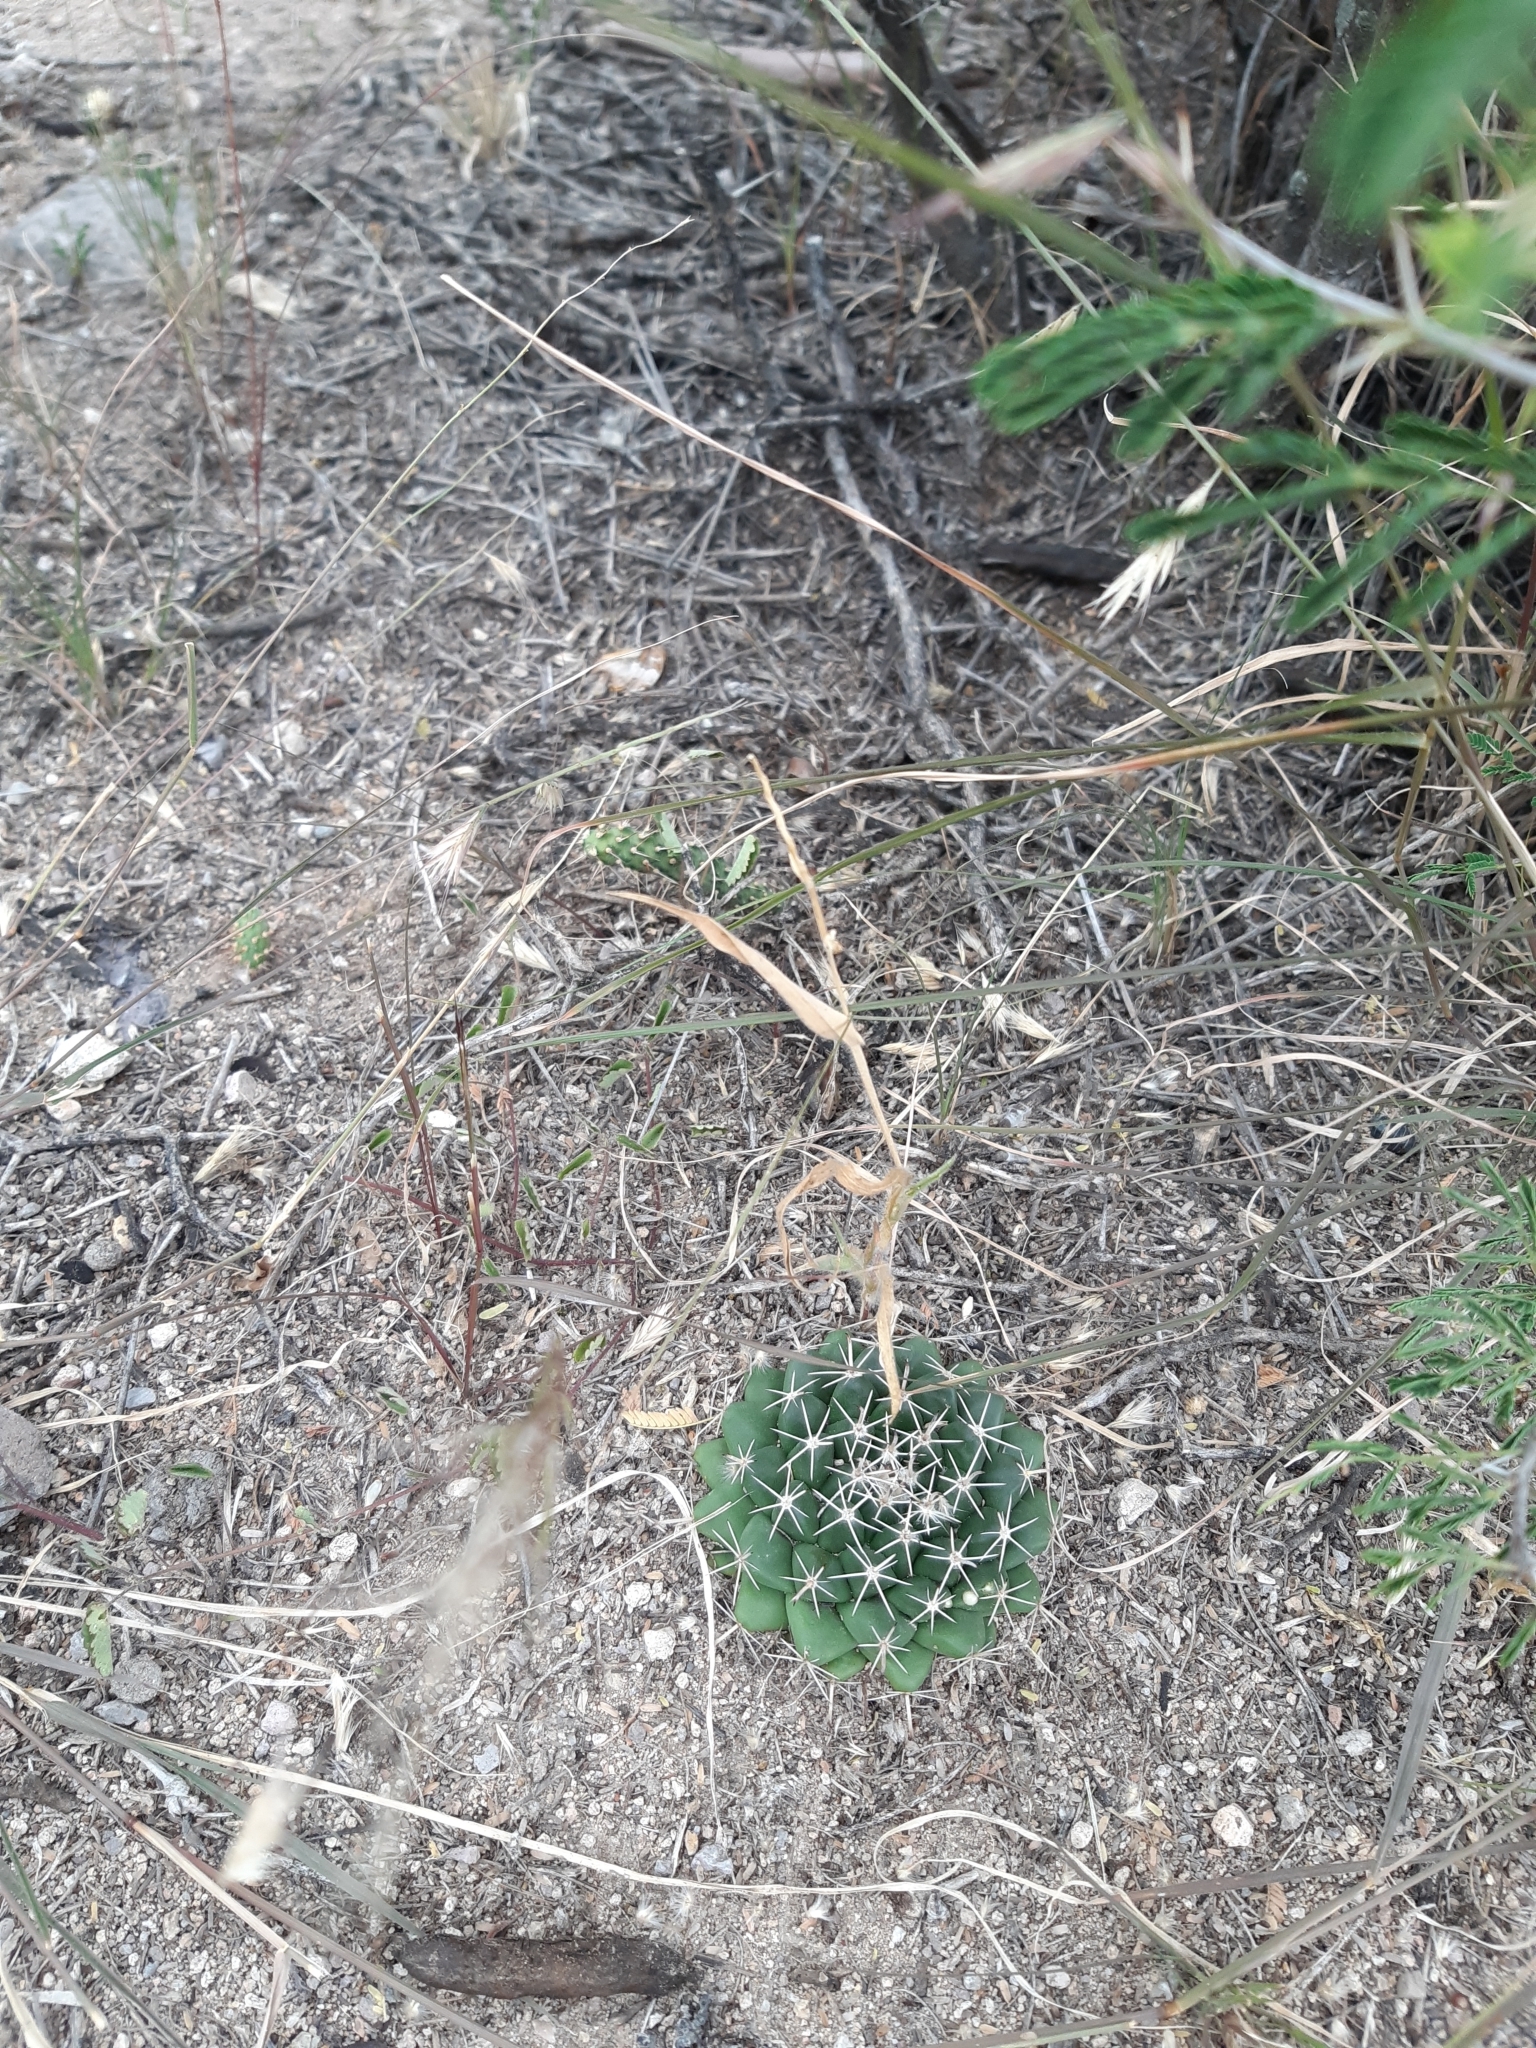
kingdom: Plantae
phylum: Tracheophyta
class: Magnoliopsida
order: Caryophyllales
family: Cactaceae
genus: Mammillaria
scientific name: Mammillaria uncinata
